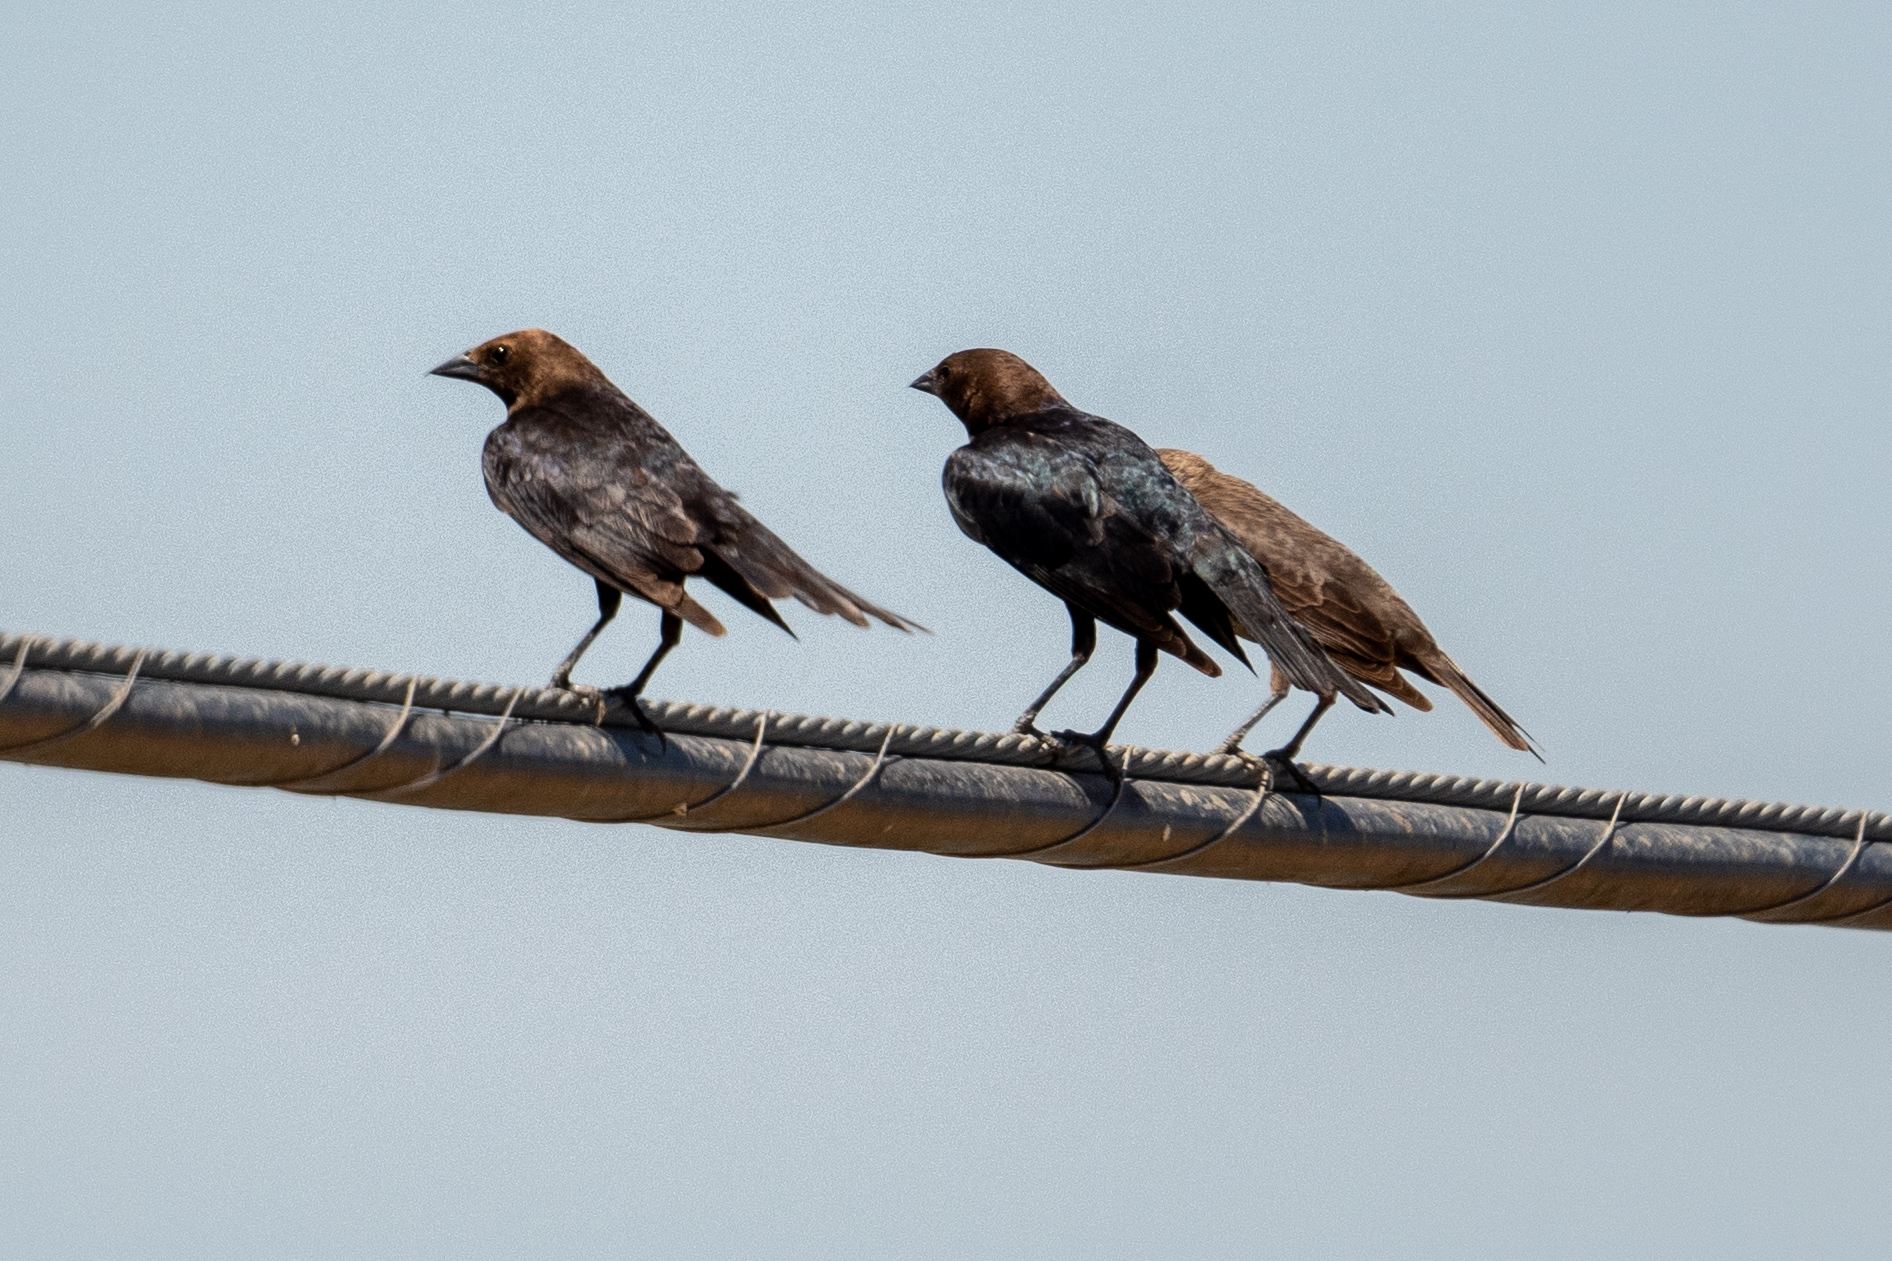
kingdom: Animalia
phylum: Chordata
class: Aves
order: Passeriformes
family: Icteridae
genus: Molothrus
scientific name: Molothrus ater
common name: Brown-headed cowbird
